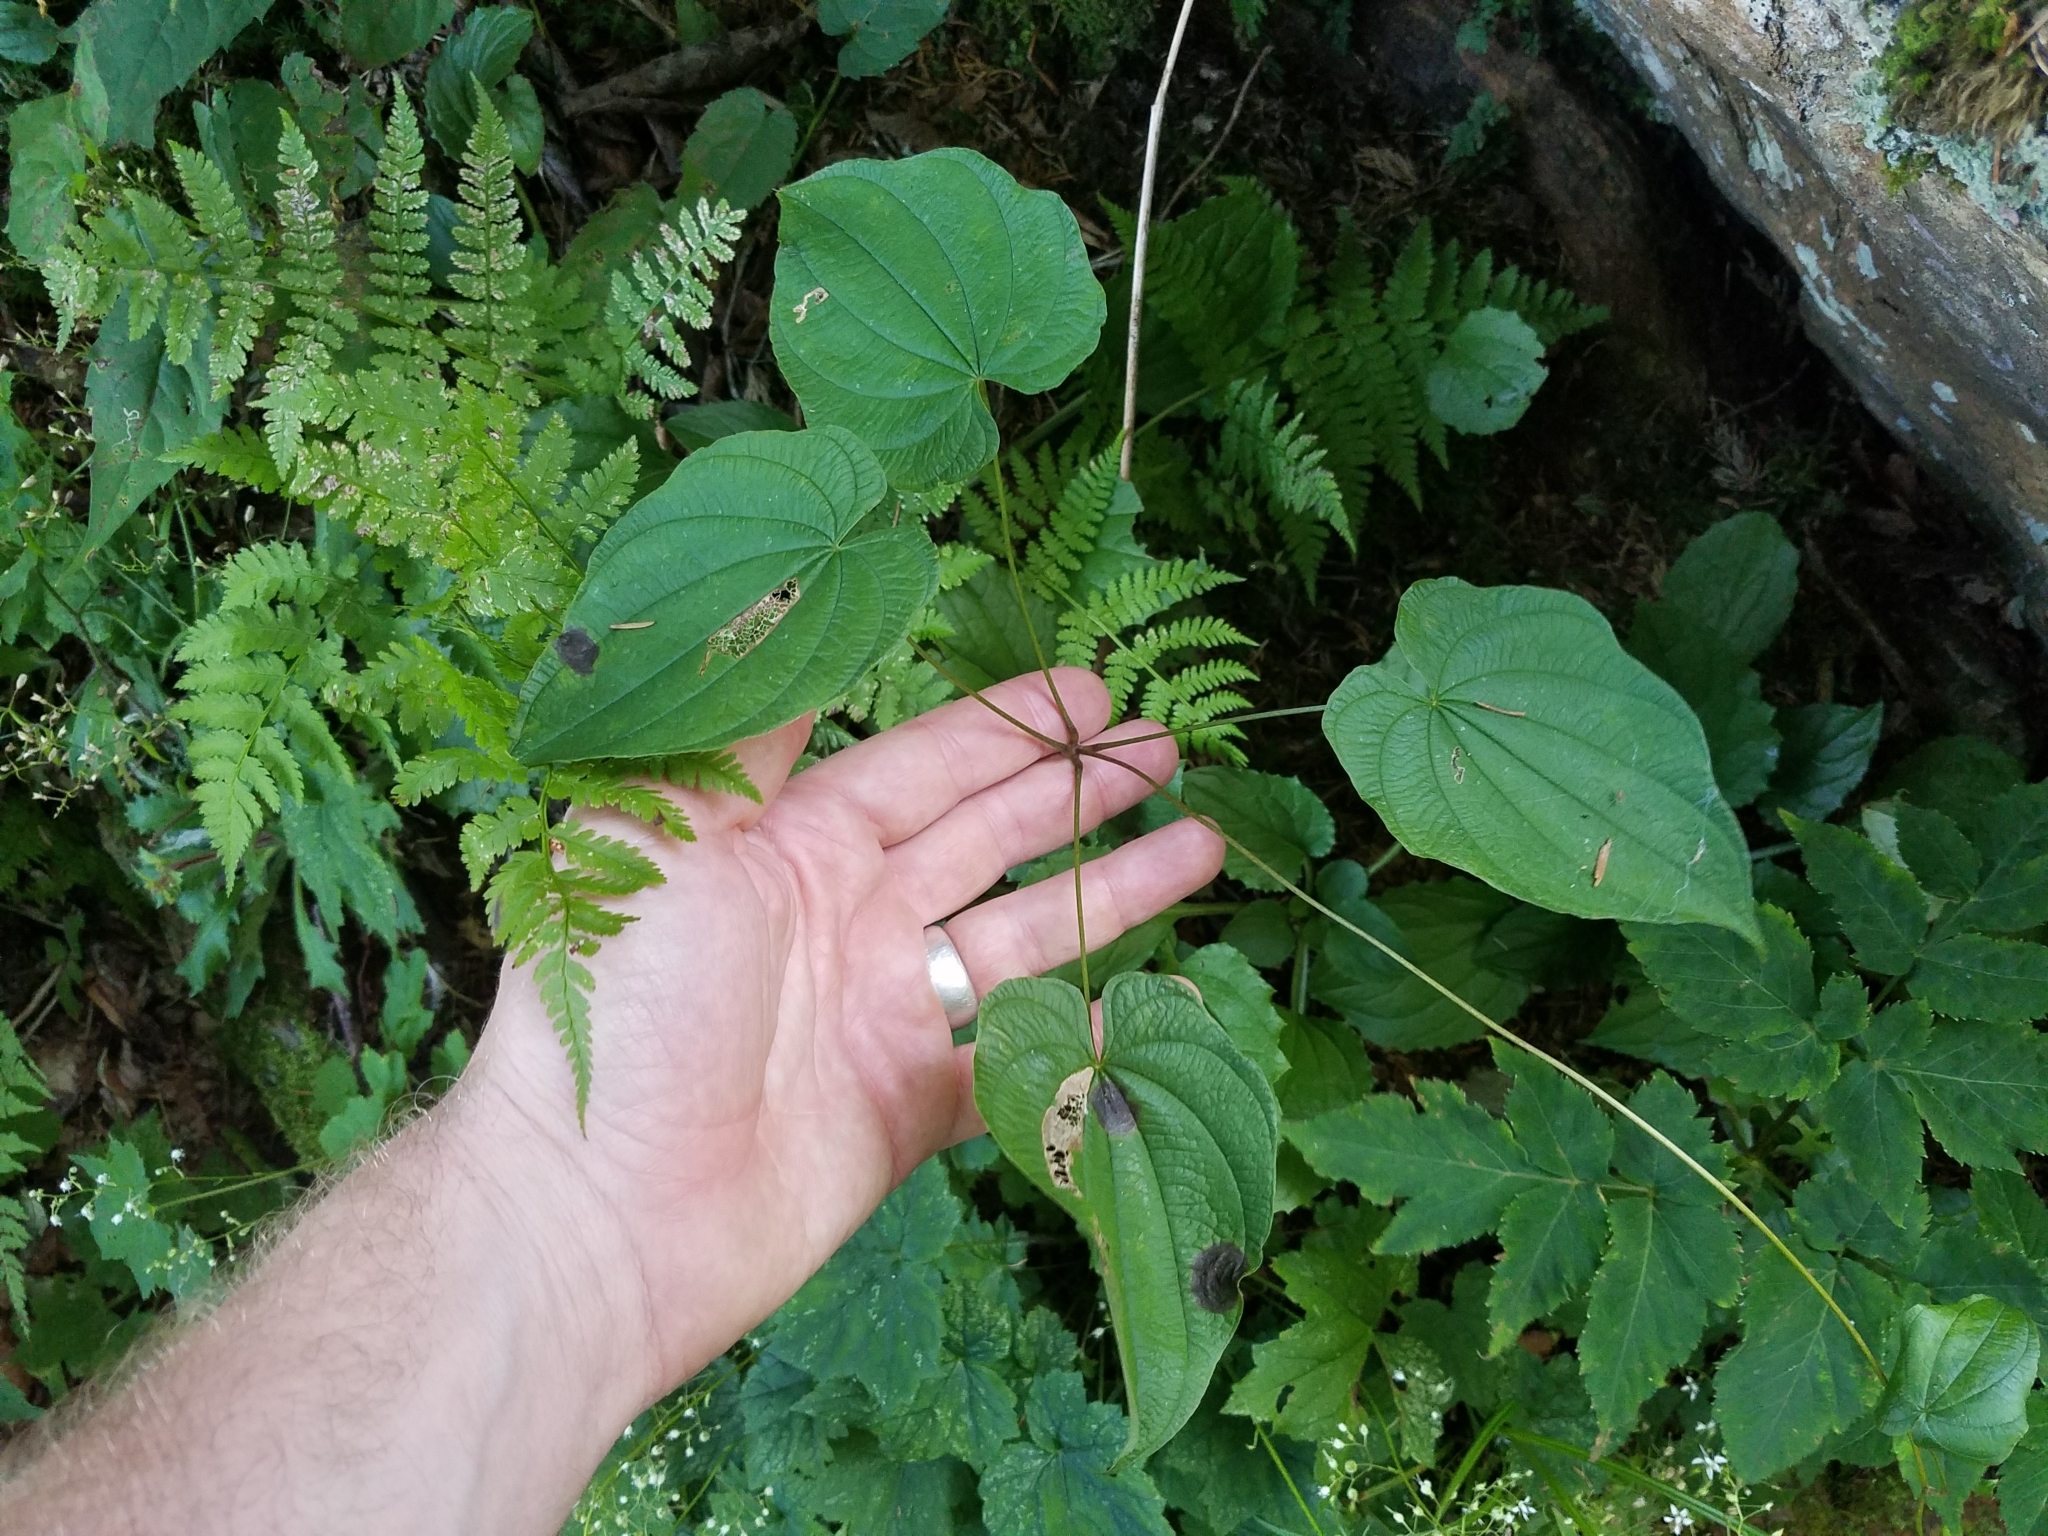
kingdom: Plantae
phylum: Tracheophyta
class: Liliopsida
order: Dioscoreales
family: Dioscoreaceae
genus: Dioscorea
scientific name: Dioscorea villosa
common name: Wild yam
